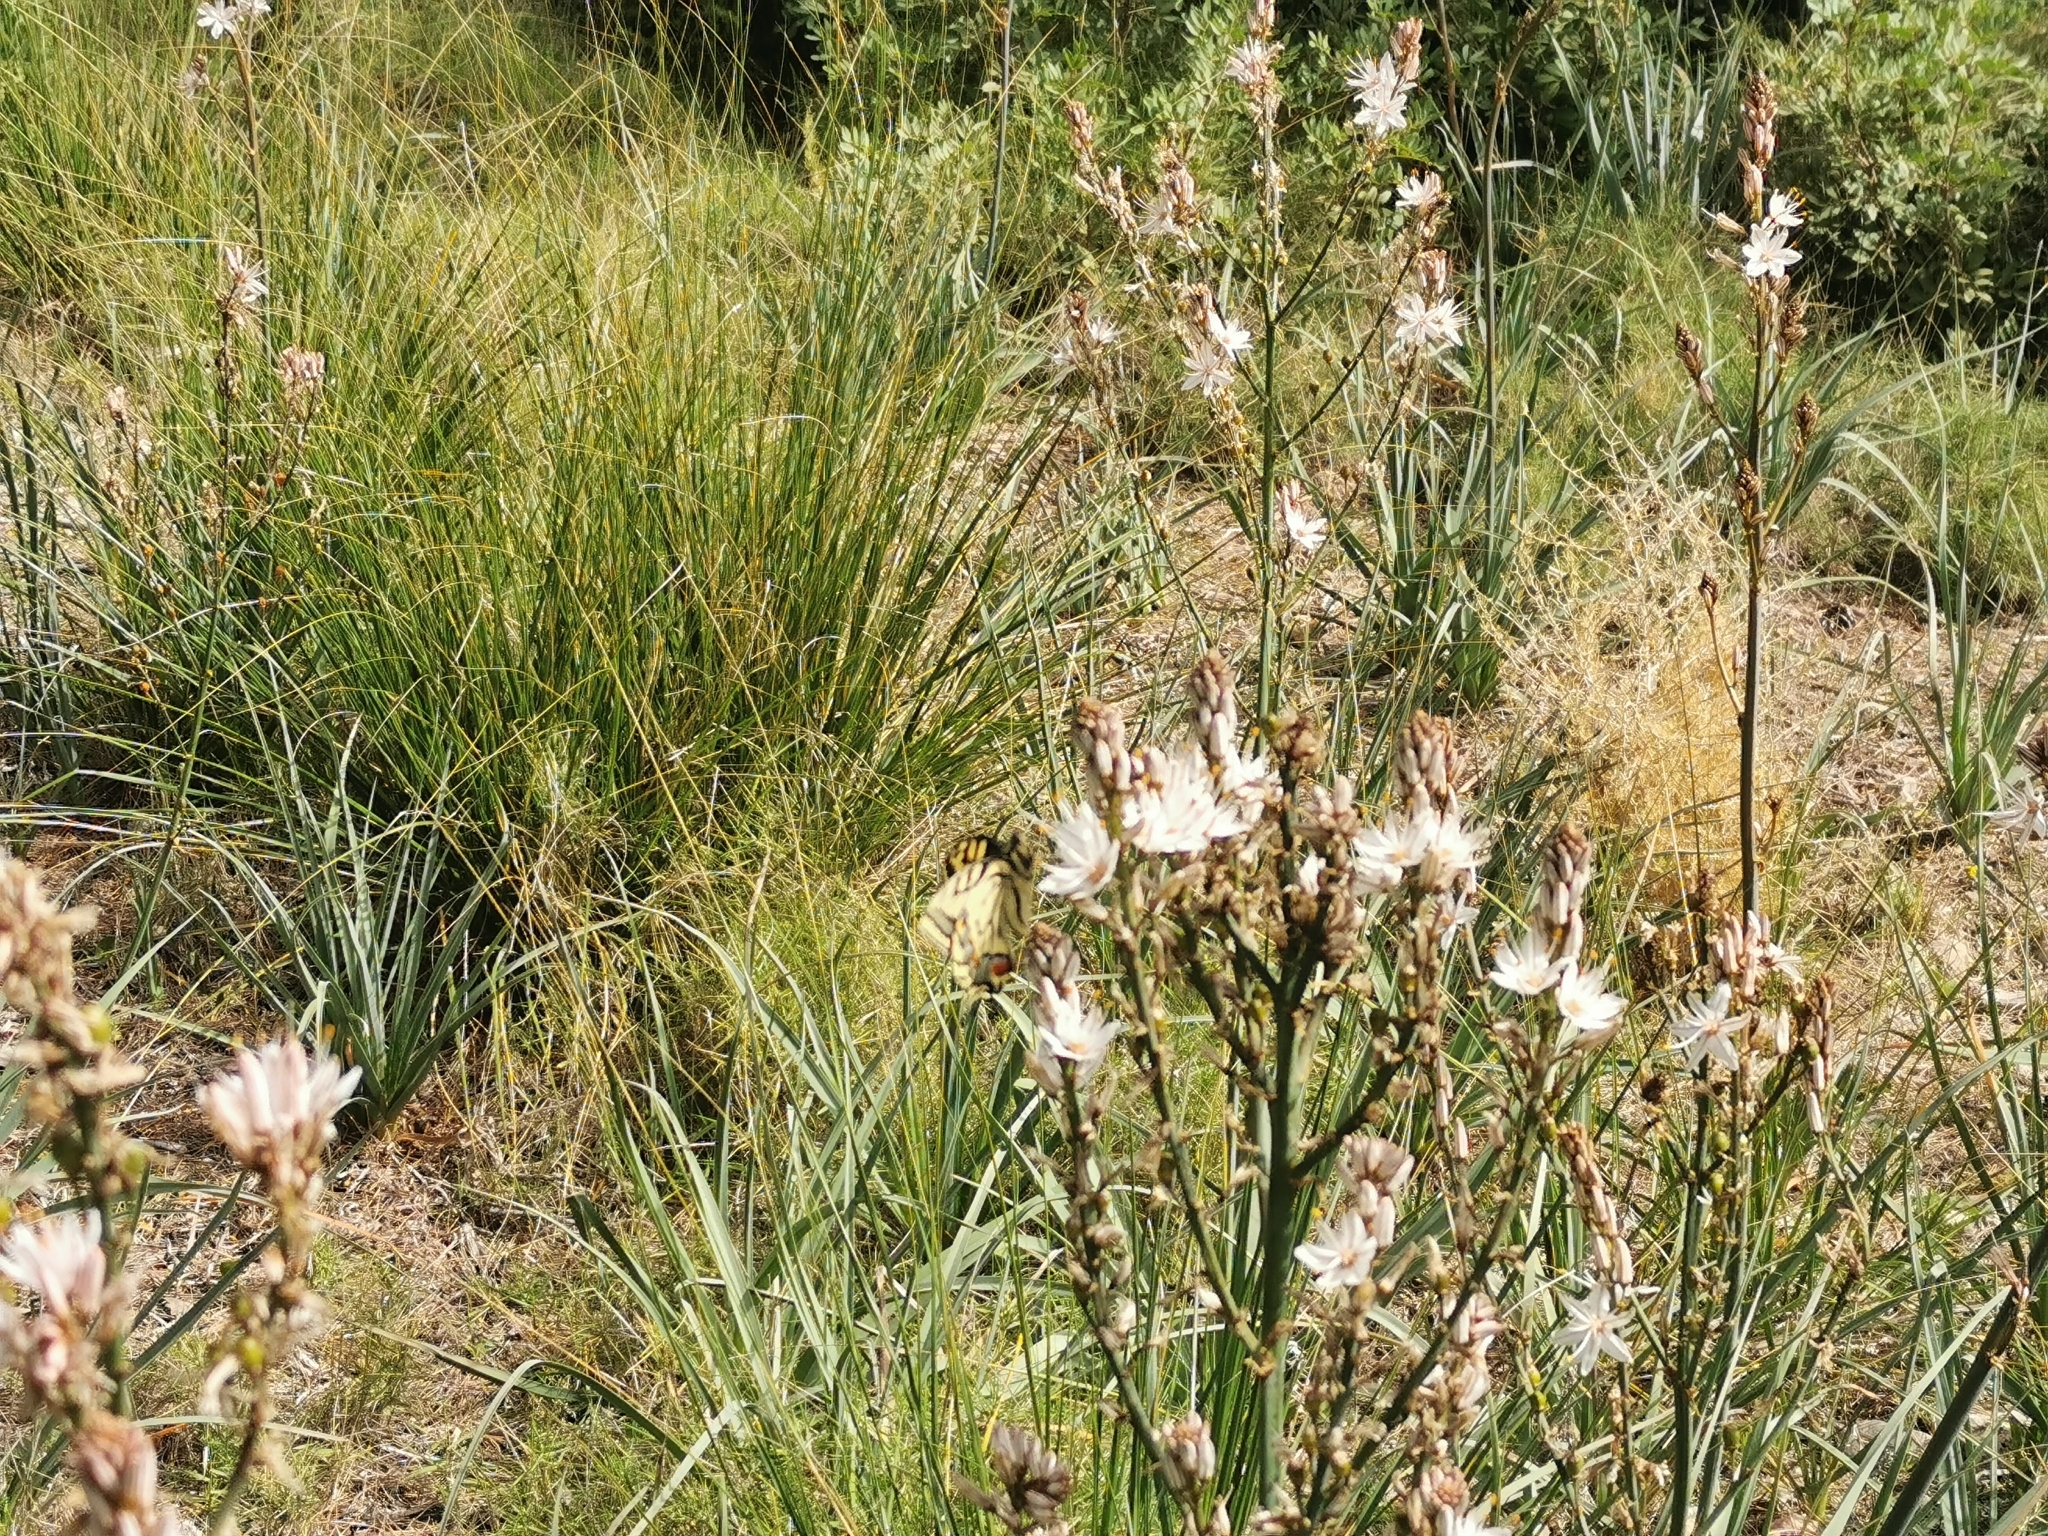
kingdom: Plantae
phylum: Tracheophyta
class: Liliopsida
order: Asparagales
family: Asphodelaceae
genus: Asphodelus
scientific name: Asphodelus ramosus
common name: Silverrod
